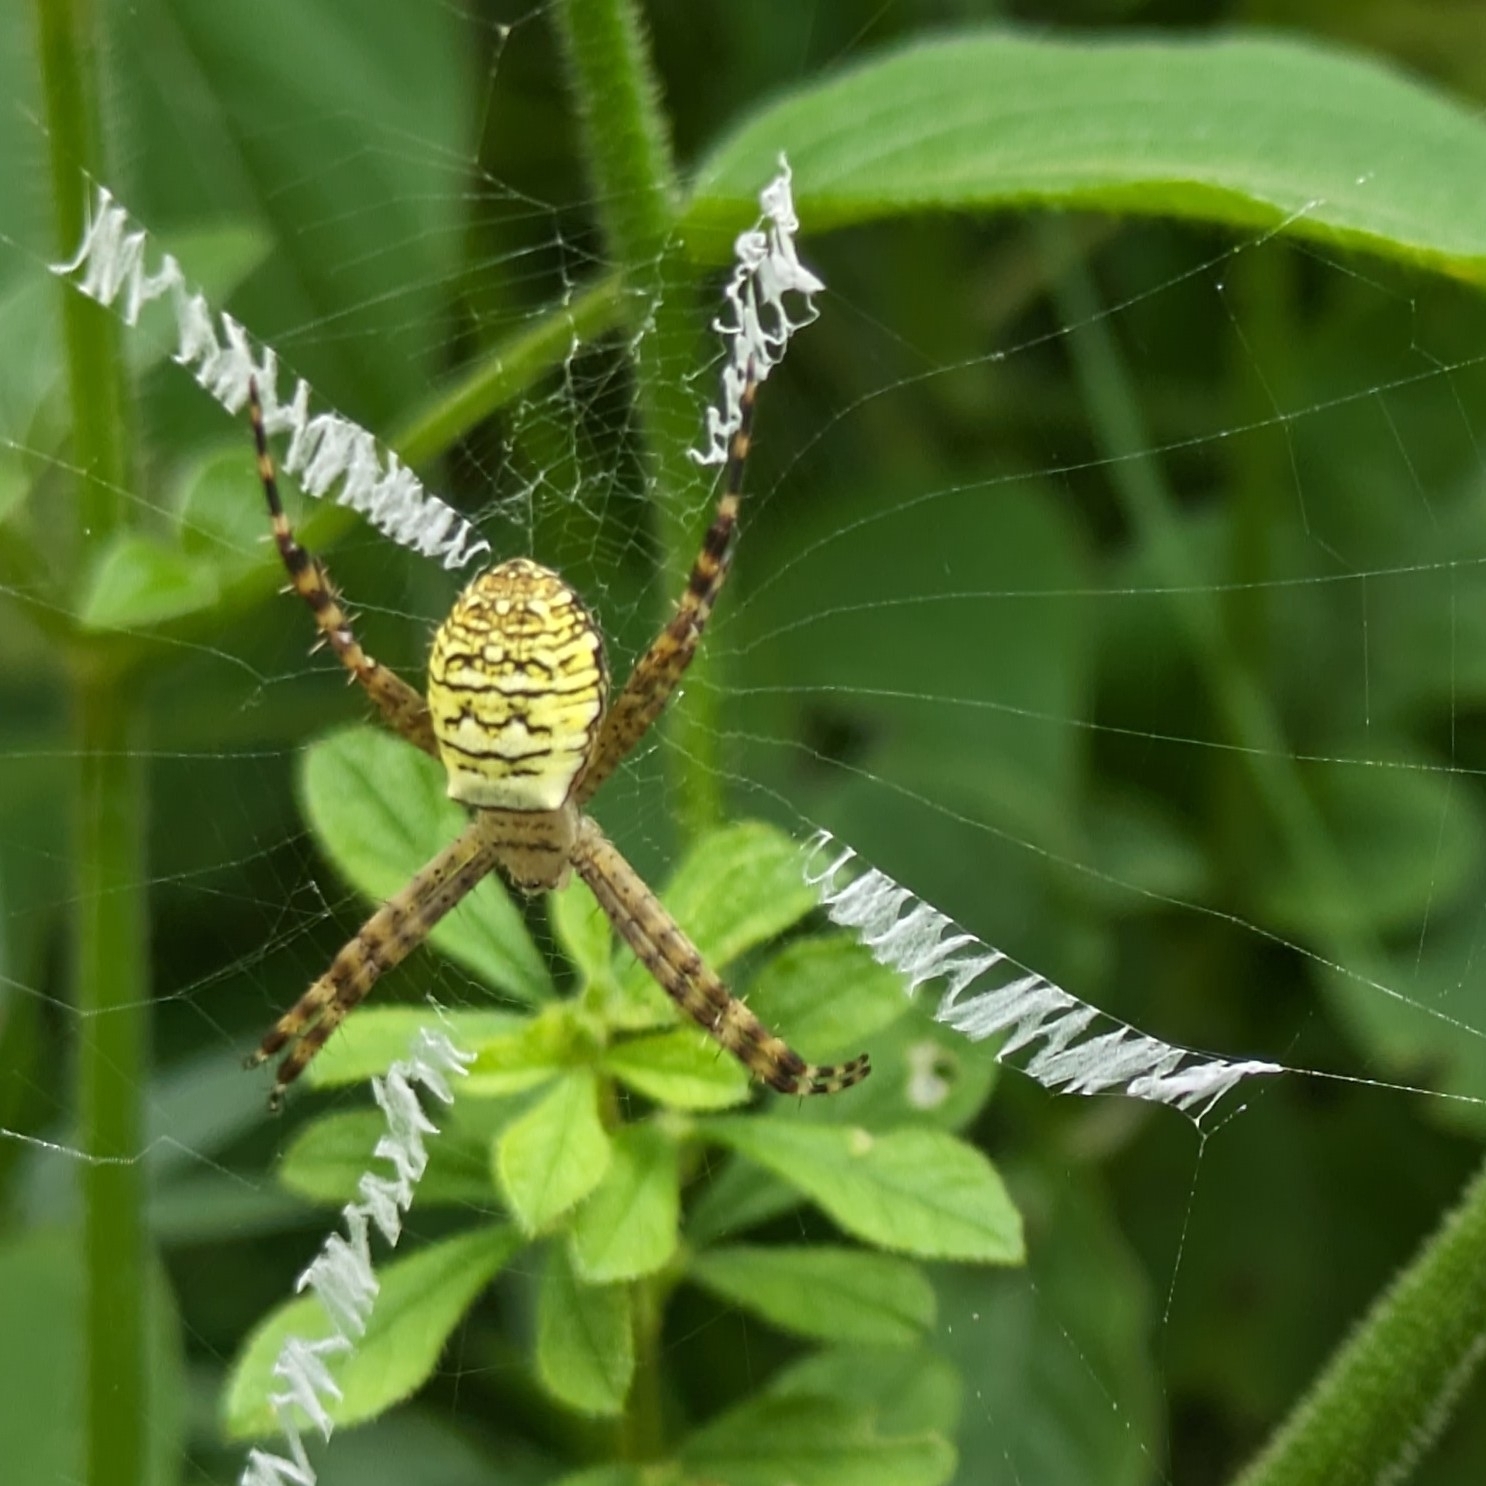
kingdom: Animalia
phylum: Arthropoda
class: Arachnida
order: Araneae
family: Araneidae
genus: Argiope
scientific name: Argiope aemula
